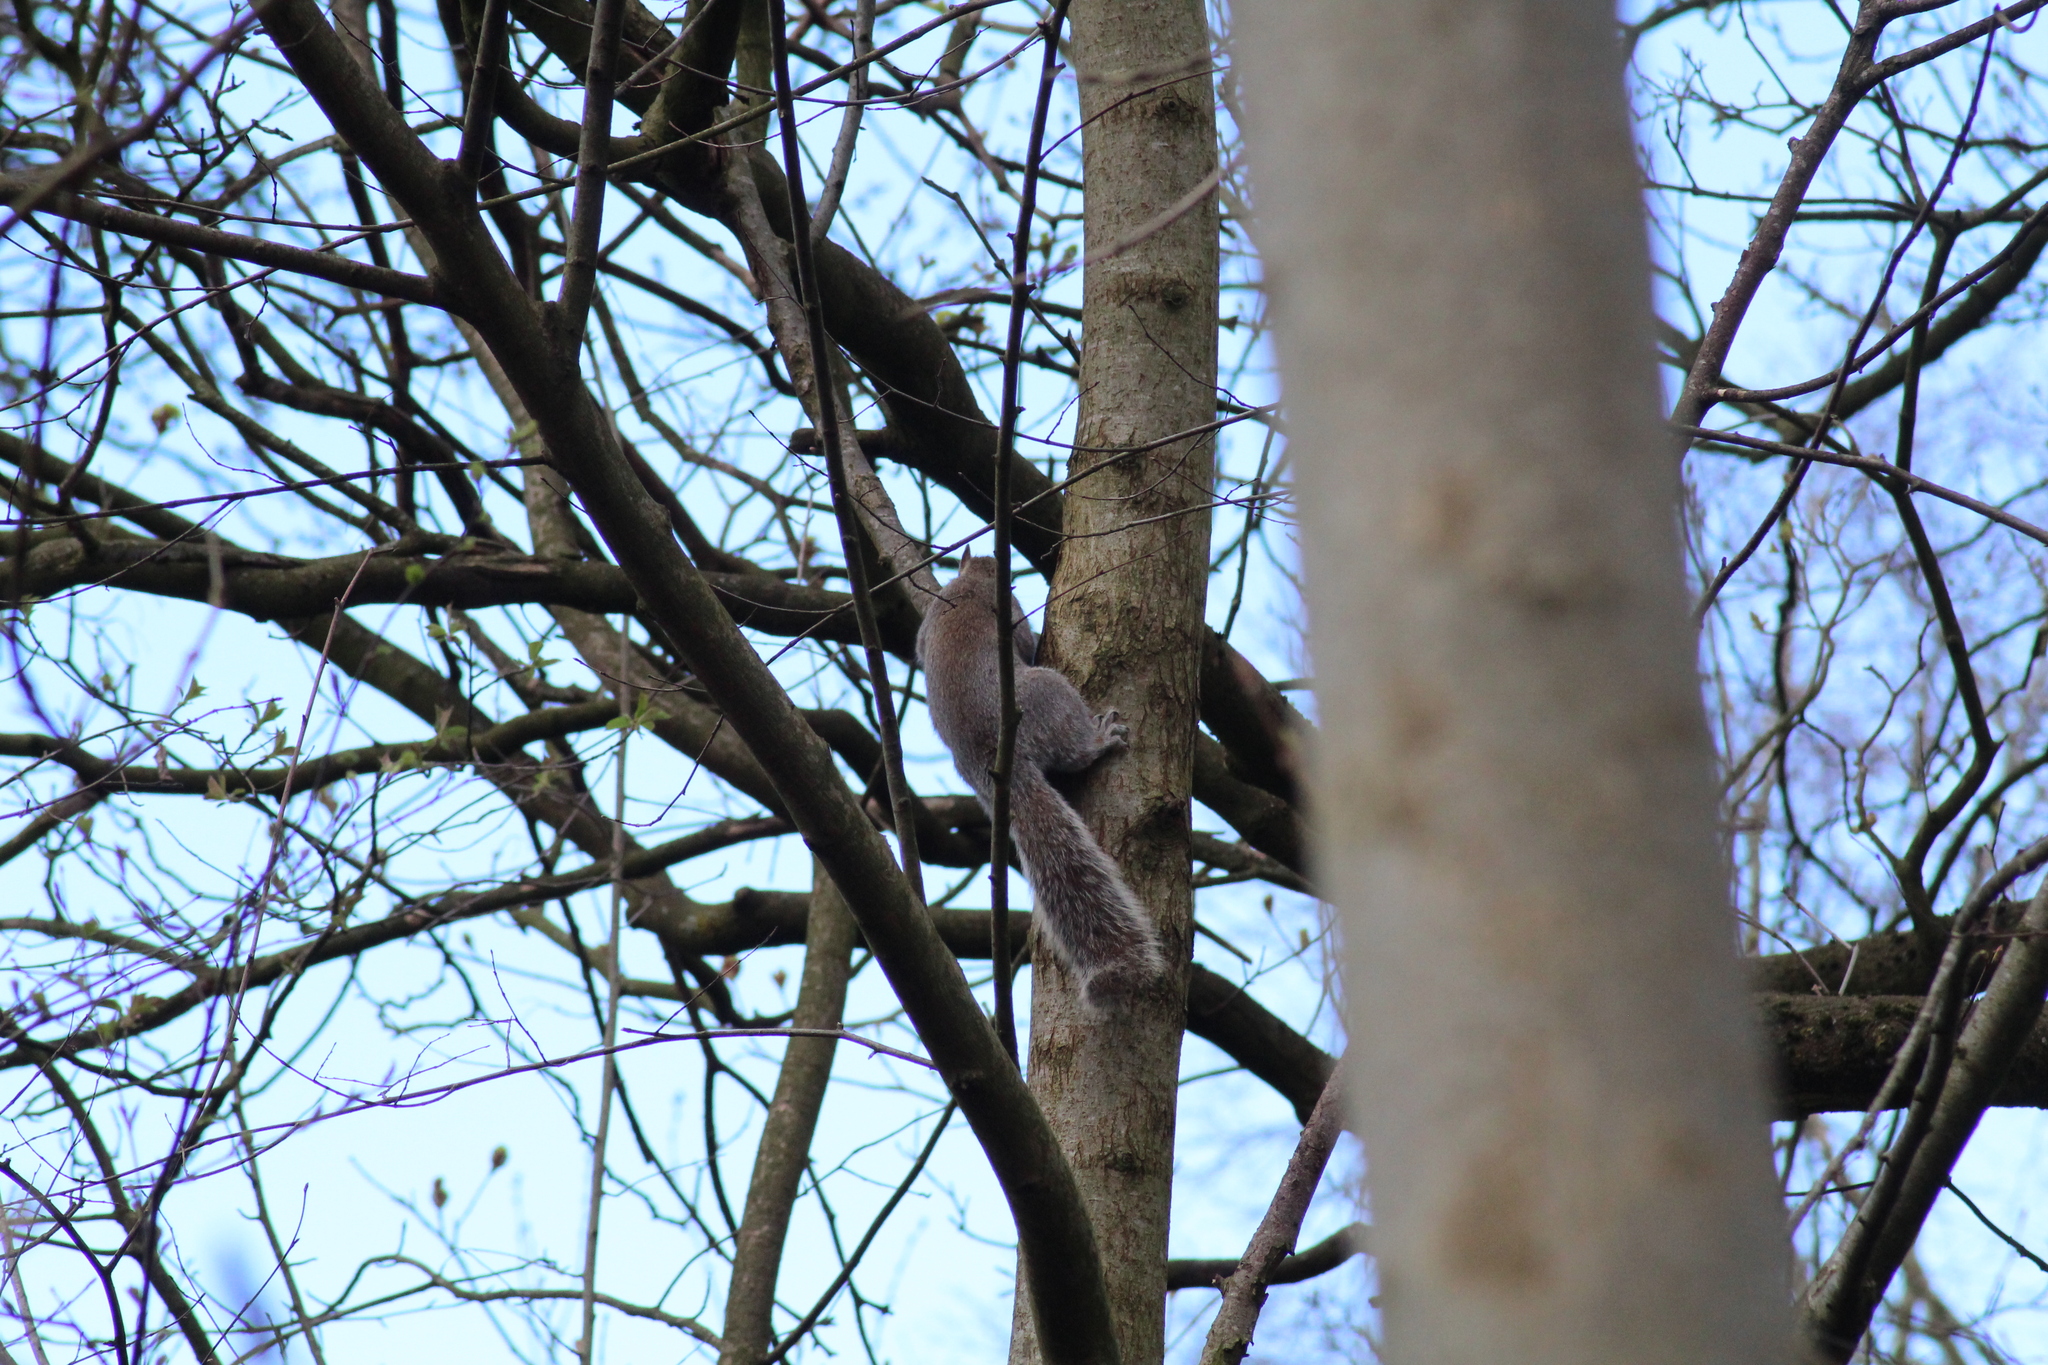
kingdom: Animalia
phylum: Chordata
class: Mammalia
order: Rodentia
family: Sciuridae
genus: Sciurus
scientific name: Sciurus carolinensis
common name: Eastern gray squirrel
